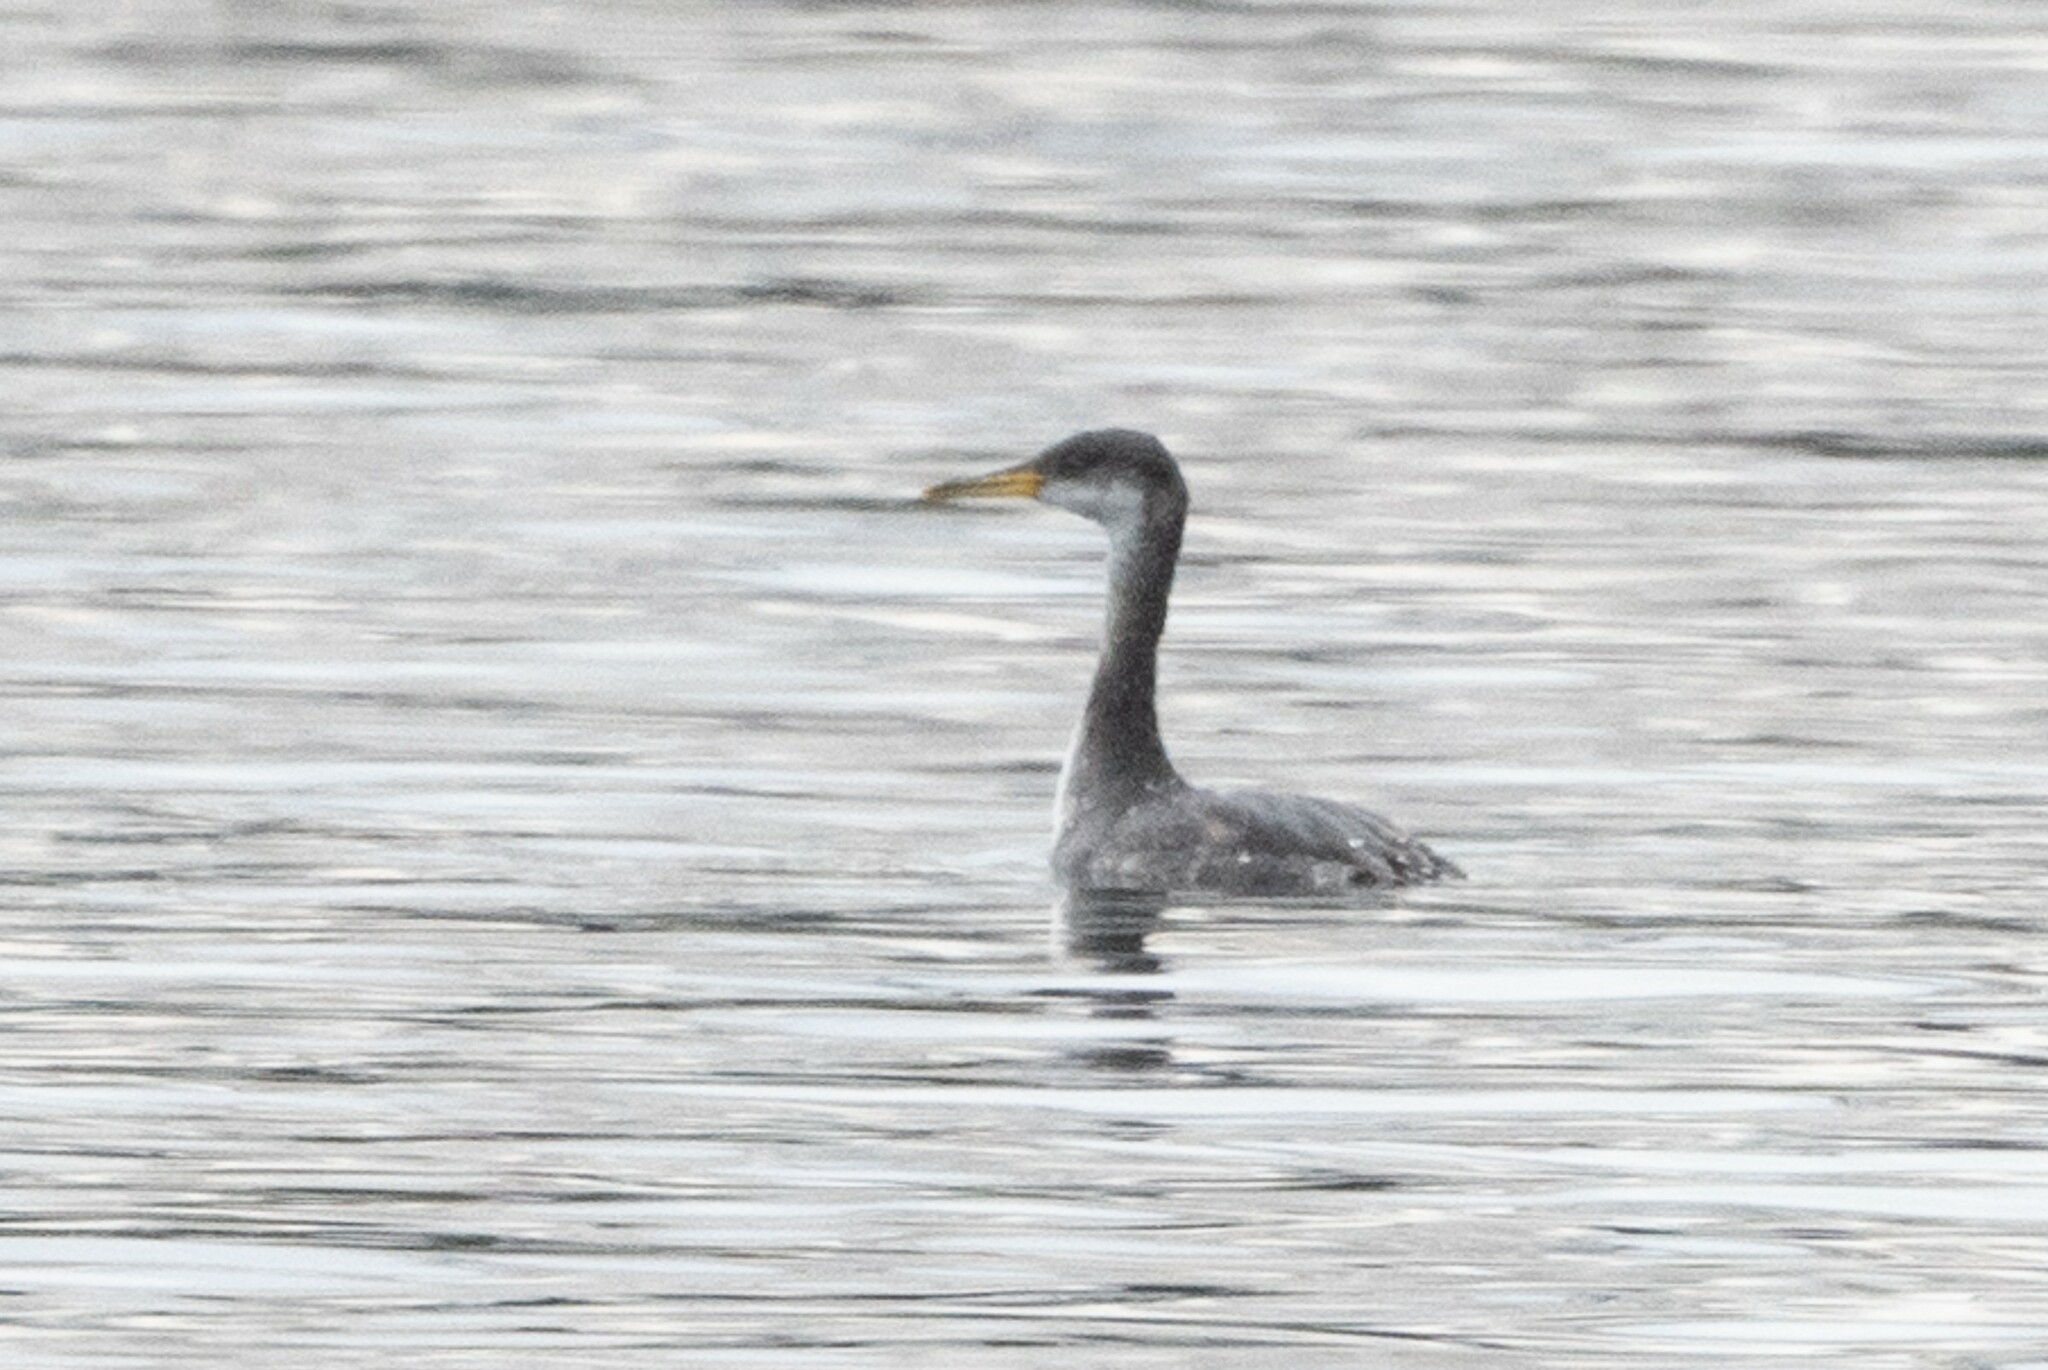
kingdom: Animalia
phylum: Chordata
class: Aves
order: Podicipediformes
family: Podicipedidae
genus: Podiceps
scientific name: Podiceps grisegena
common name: Red-necked grebe
